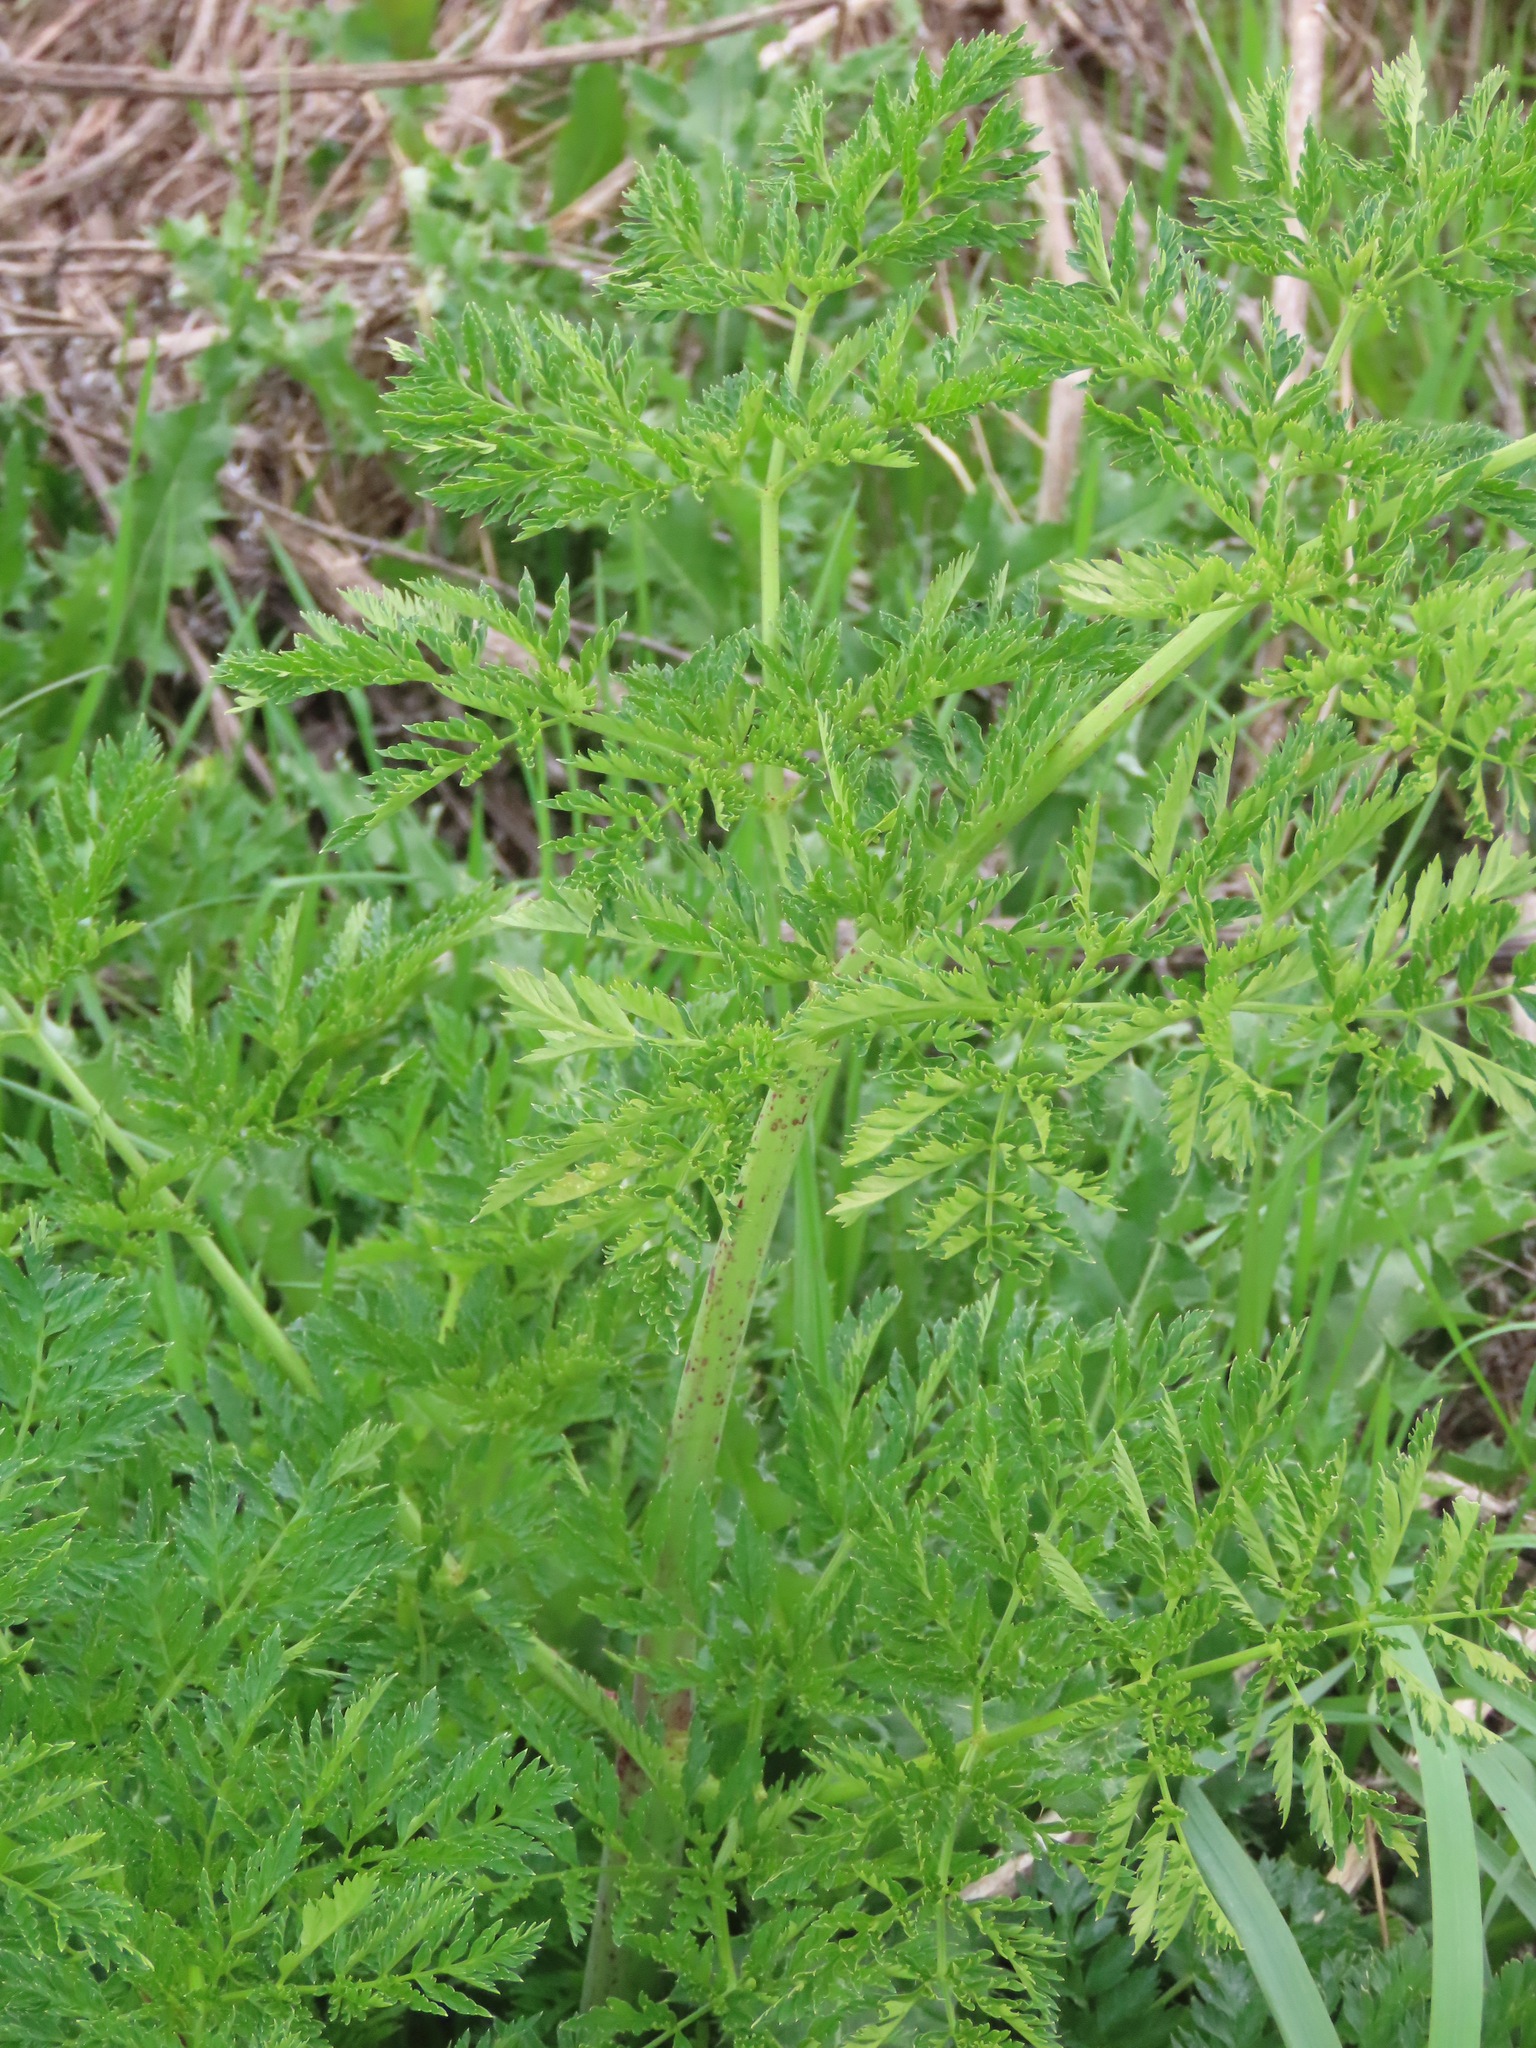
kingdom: Plantae
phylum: Tracheophyta
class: Magnoliopsida
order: Apiales
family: Apiaceae
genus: Conium
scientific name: Conium maculatum
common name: Hemlock
